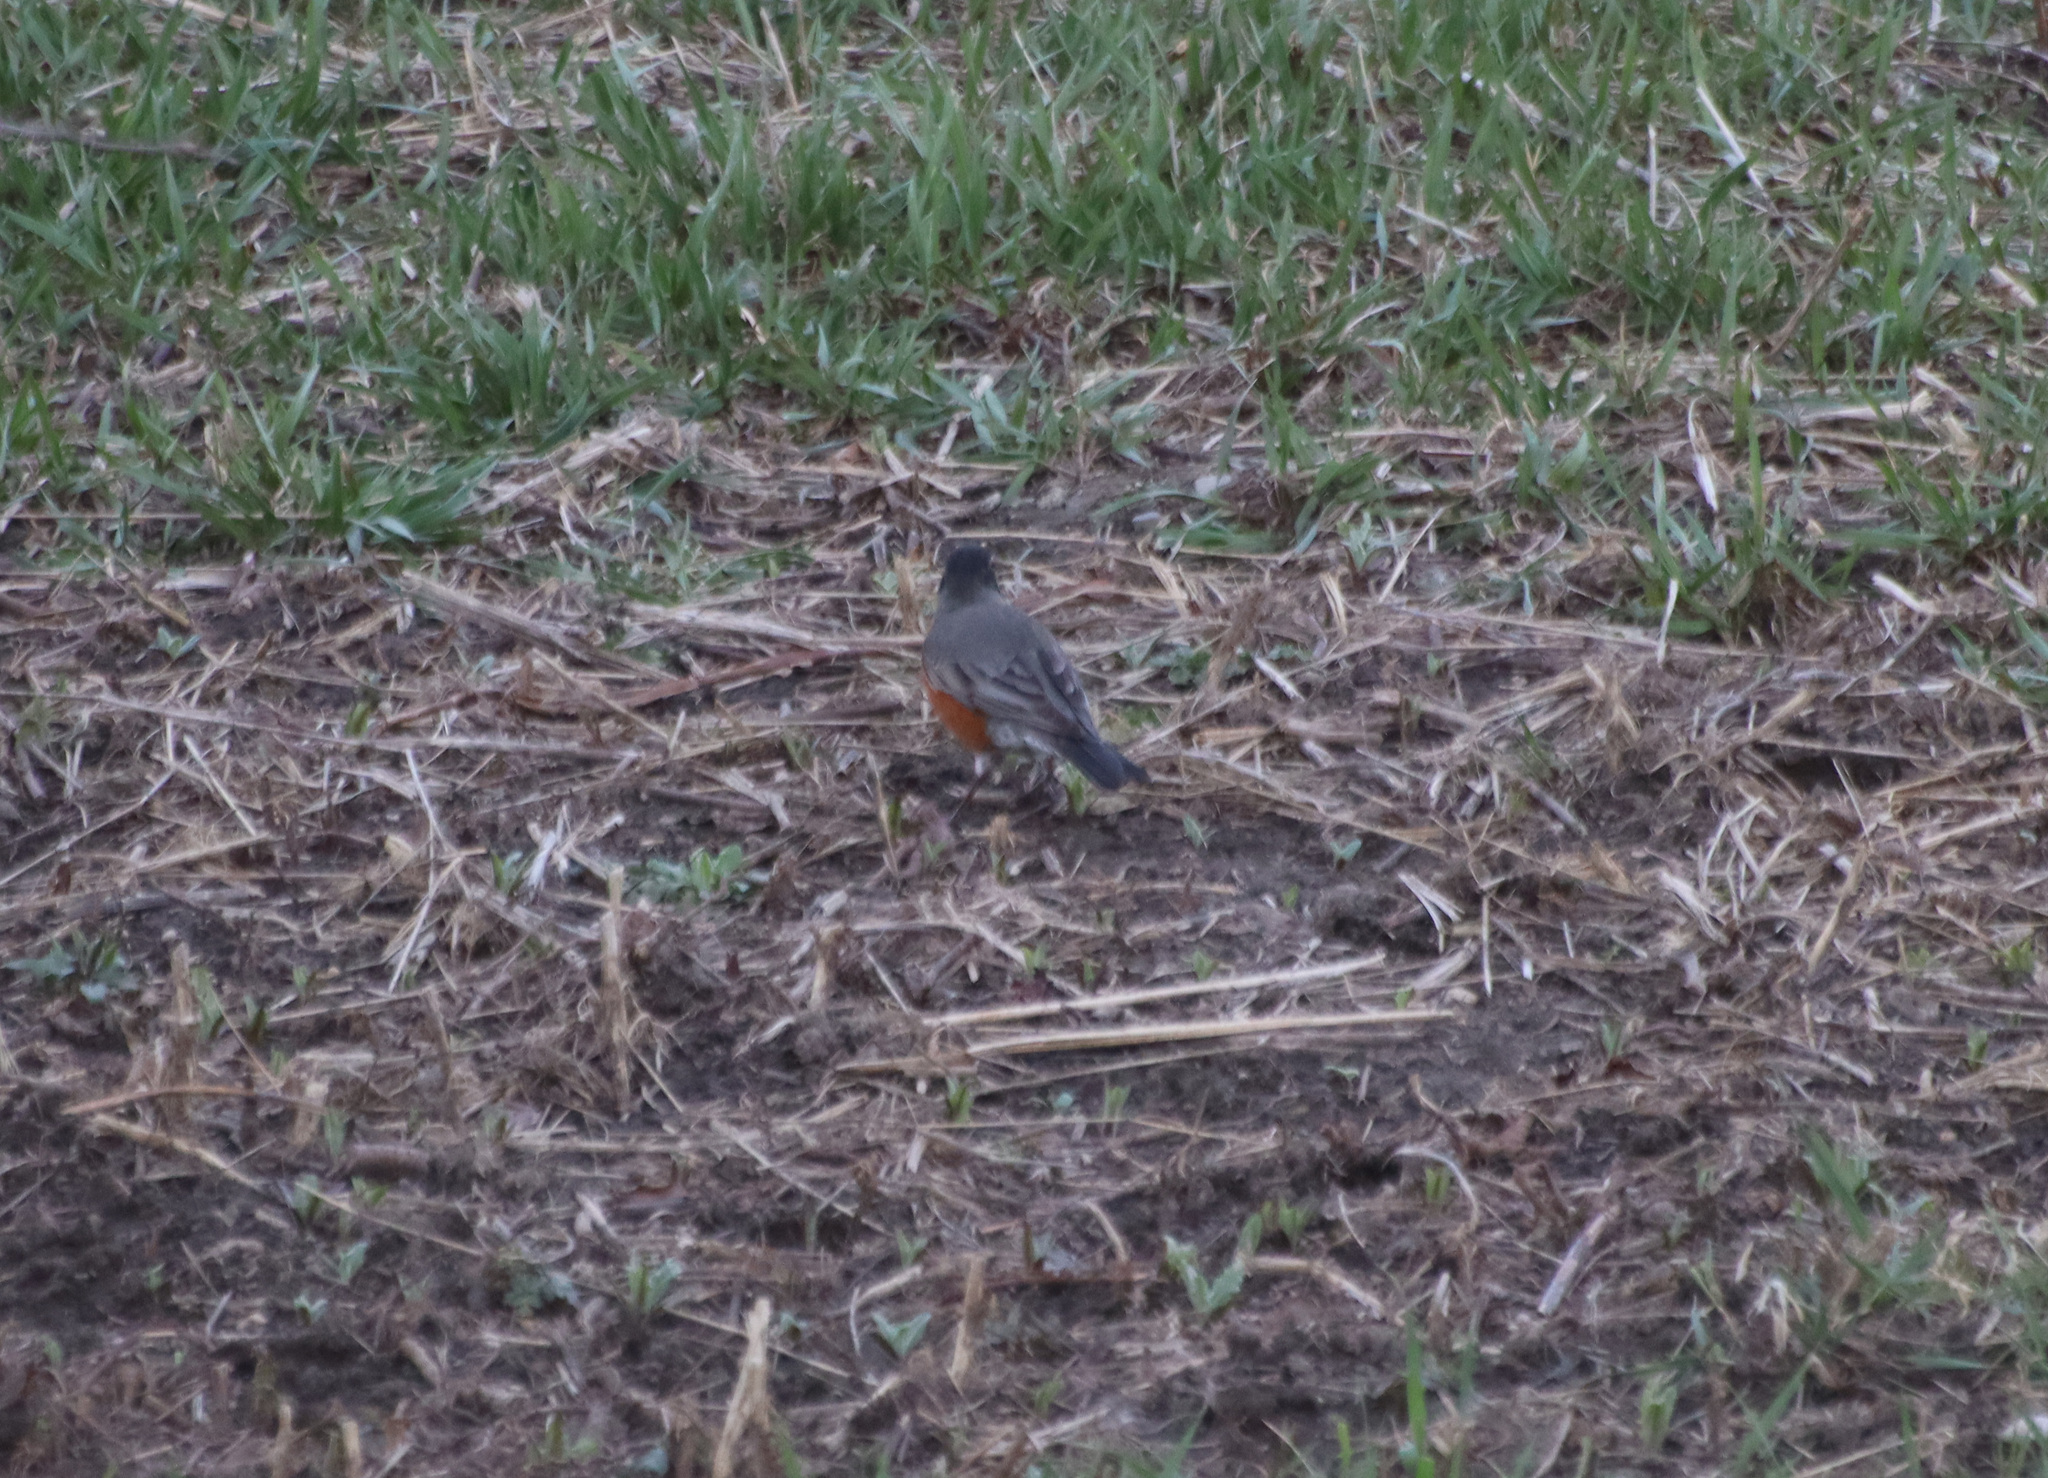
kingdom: Animalia
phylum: Chordata
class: Aves
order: Passeriformes
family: Turdidae
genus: Turdus
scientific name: Turdus migratorius
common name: American robin
